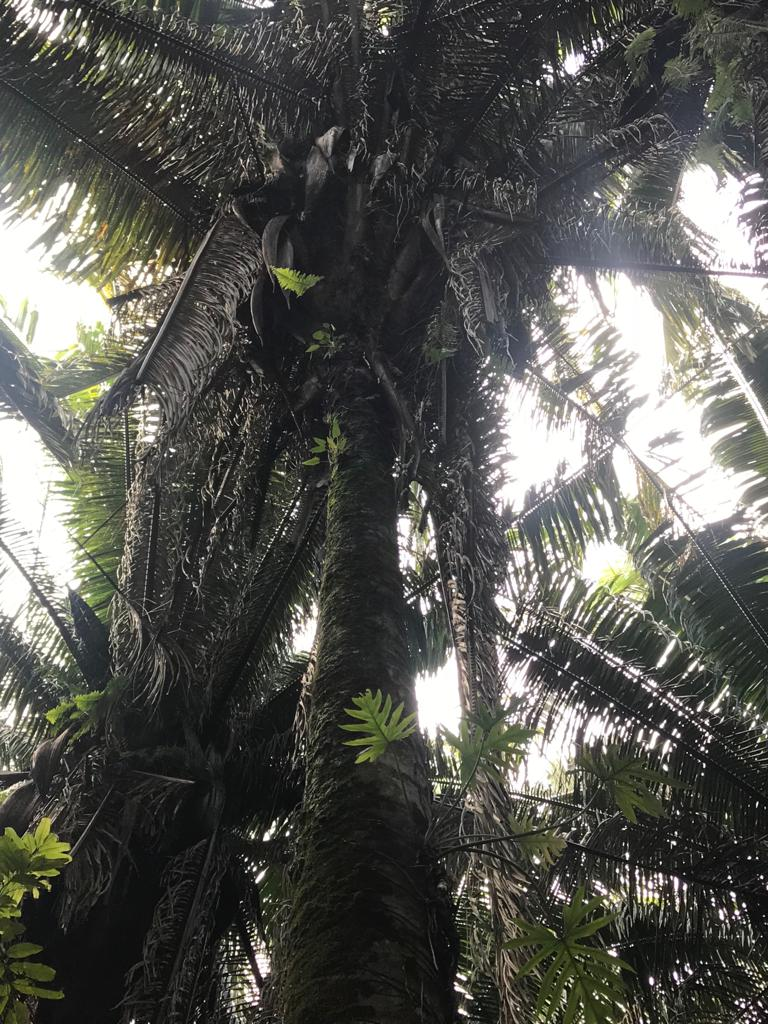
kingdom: Plantae
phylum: Tracheophyta
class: Liliopsida
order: Arecales
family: Arecaceae
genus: Attalea
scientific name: Attalea cohune
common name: Cohune palm
